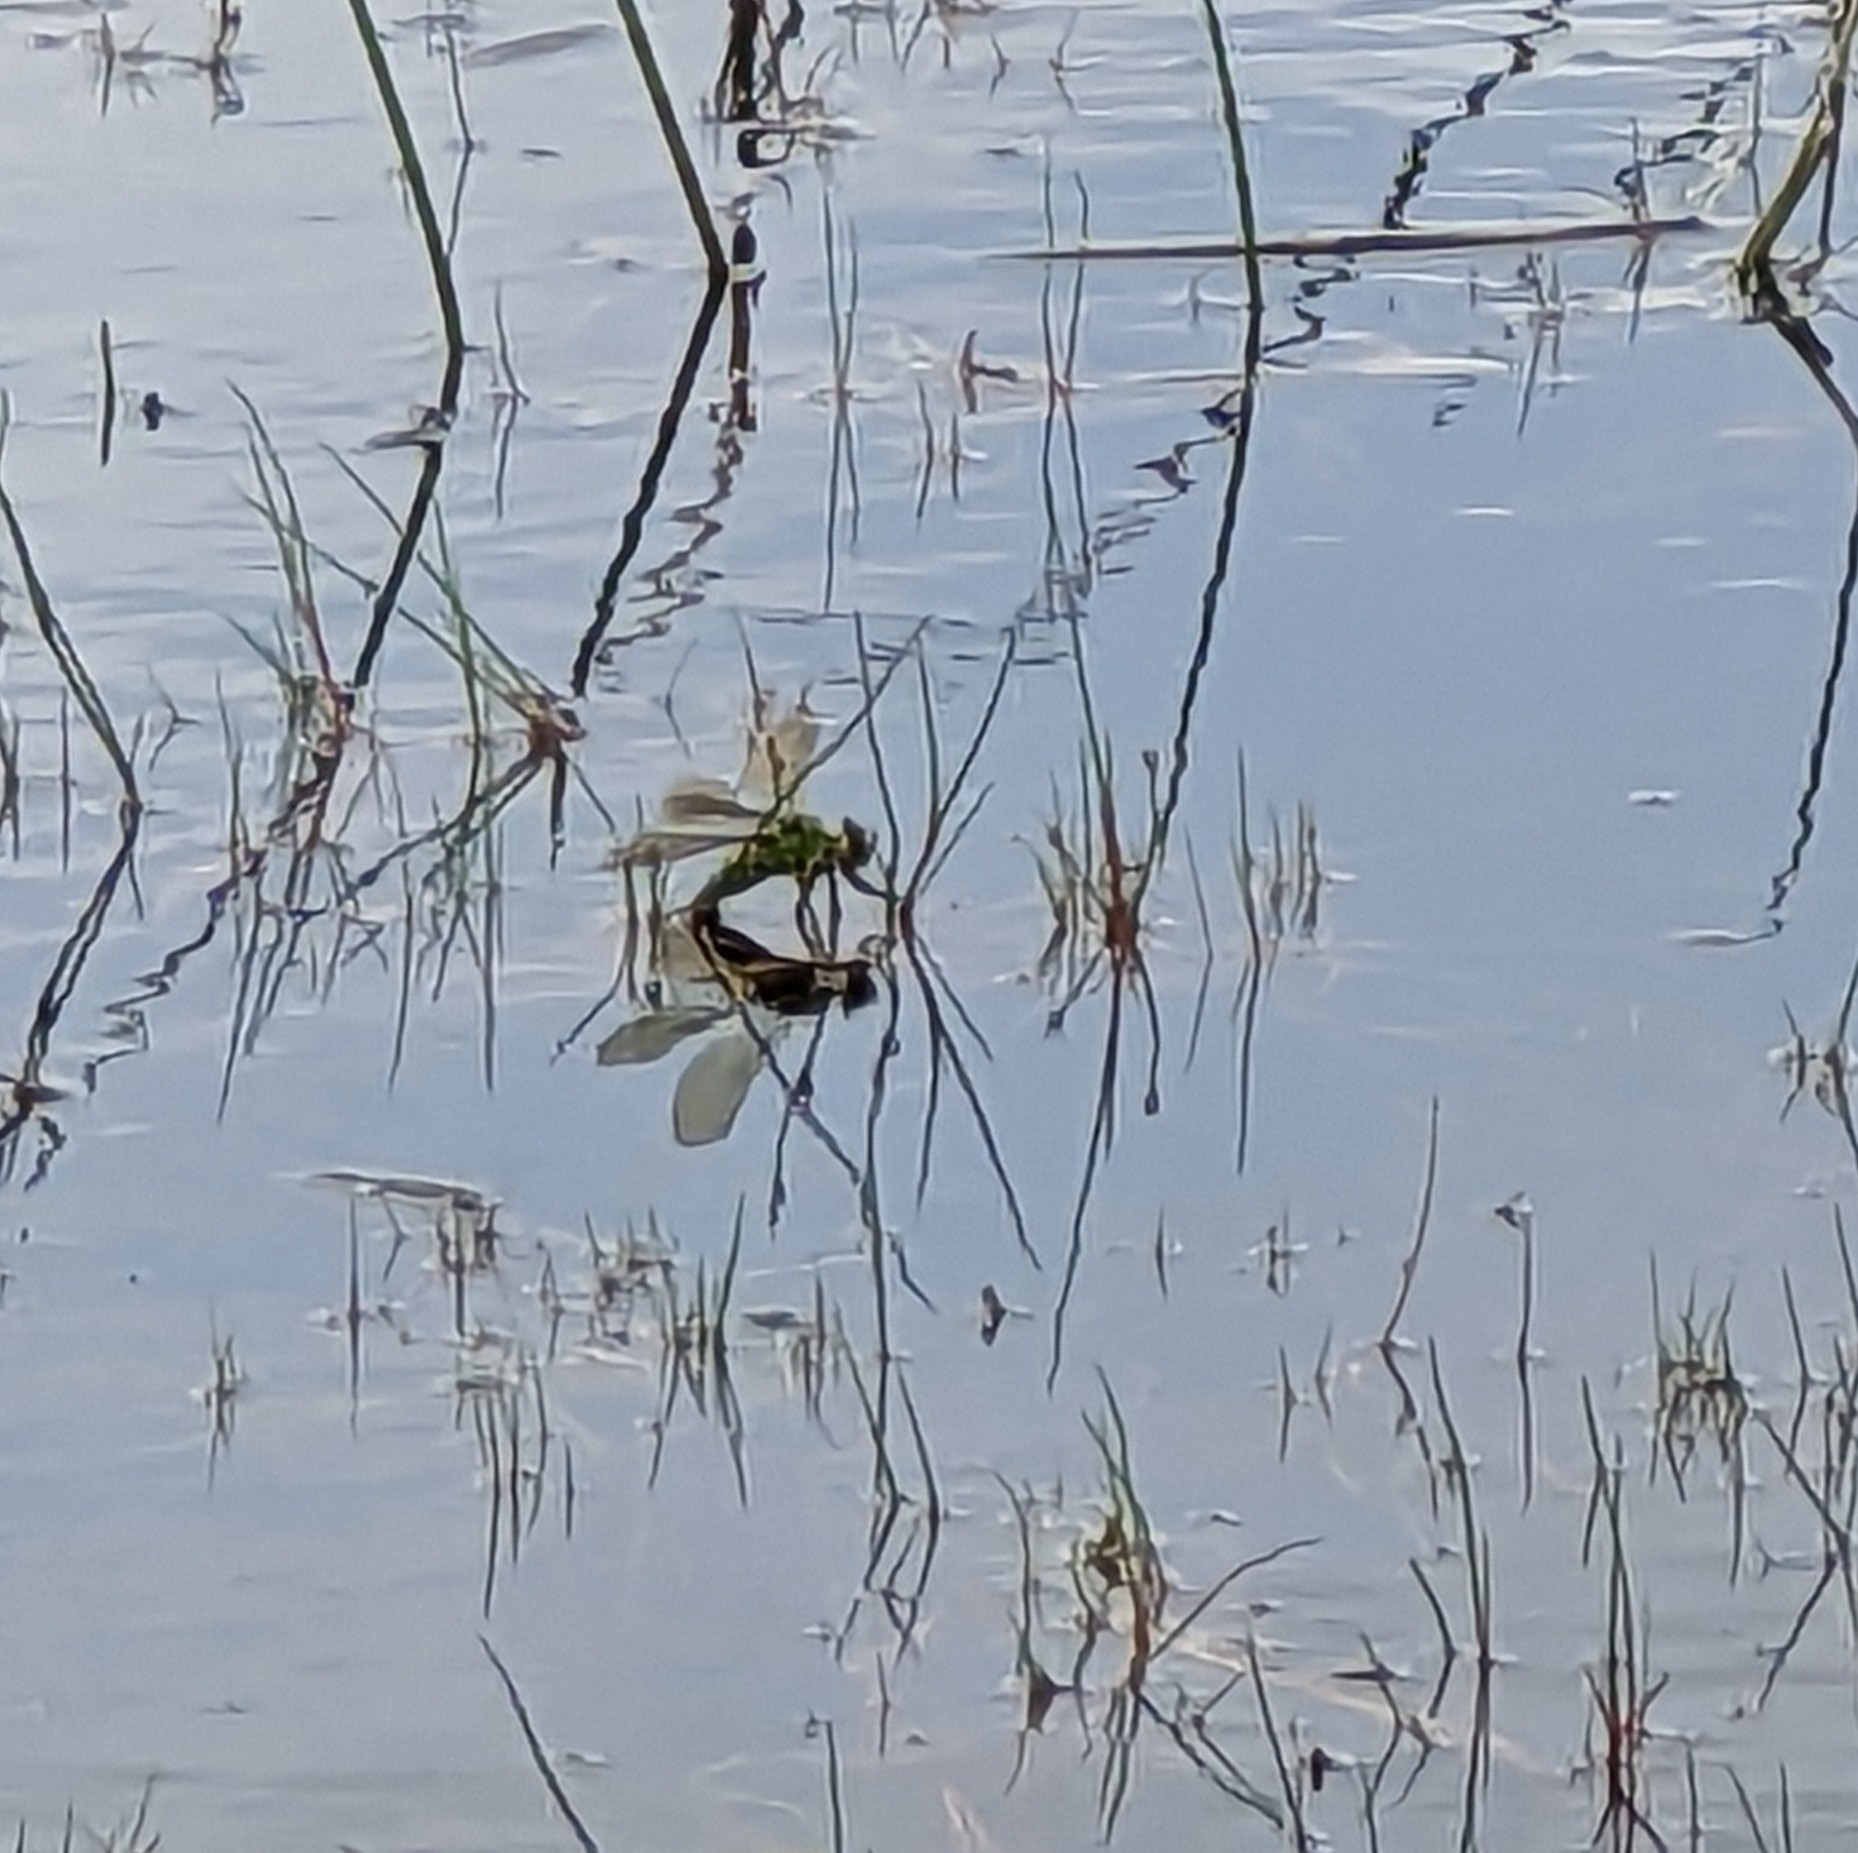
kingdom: Animalia
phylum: Arthropoda
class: Insecta
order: Odonata
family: Aeshnidae
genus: Anax
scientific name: Anax imperator
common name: Emperor dragonfly
